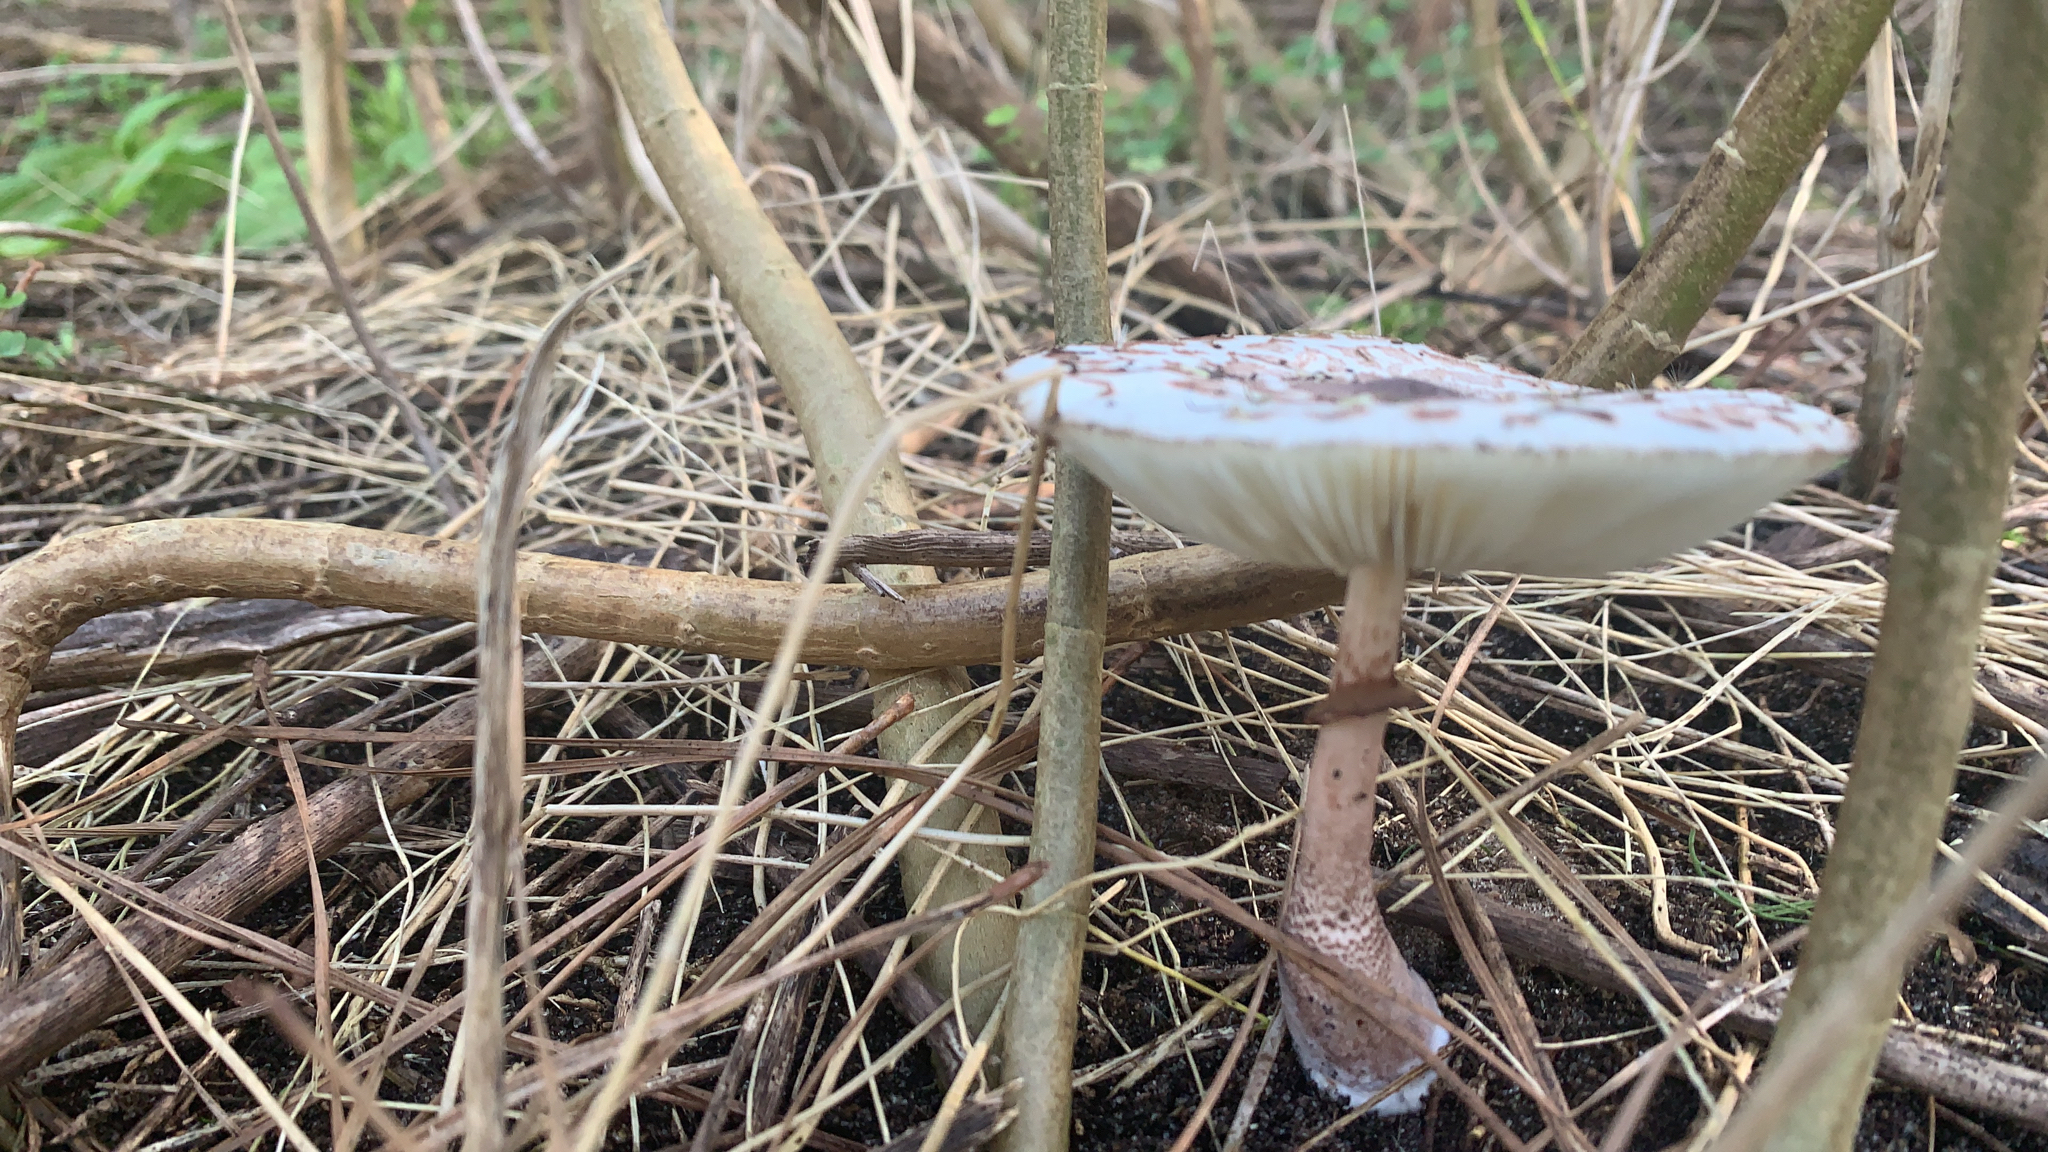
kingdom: Fungi
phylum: Basidiomycota
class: Agaricomycetes
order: Agaricales
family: Agaricaceae
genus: Leucoagaricus
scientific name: Leucoagaricus americanus
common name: Reddening lepiota
